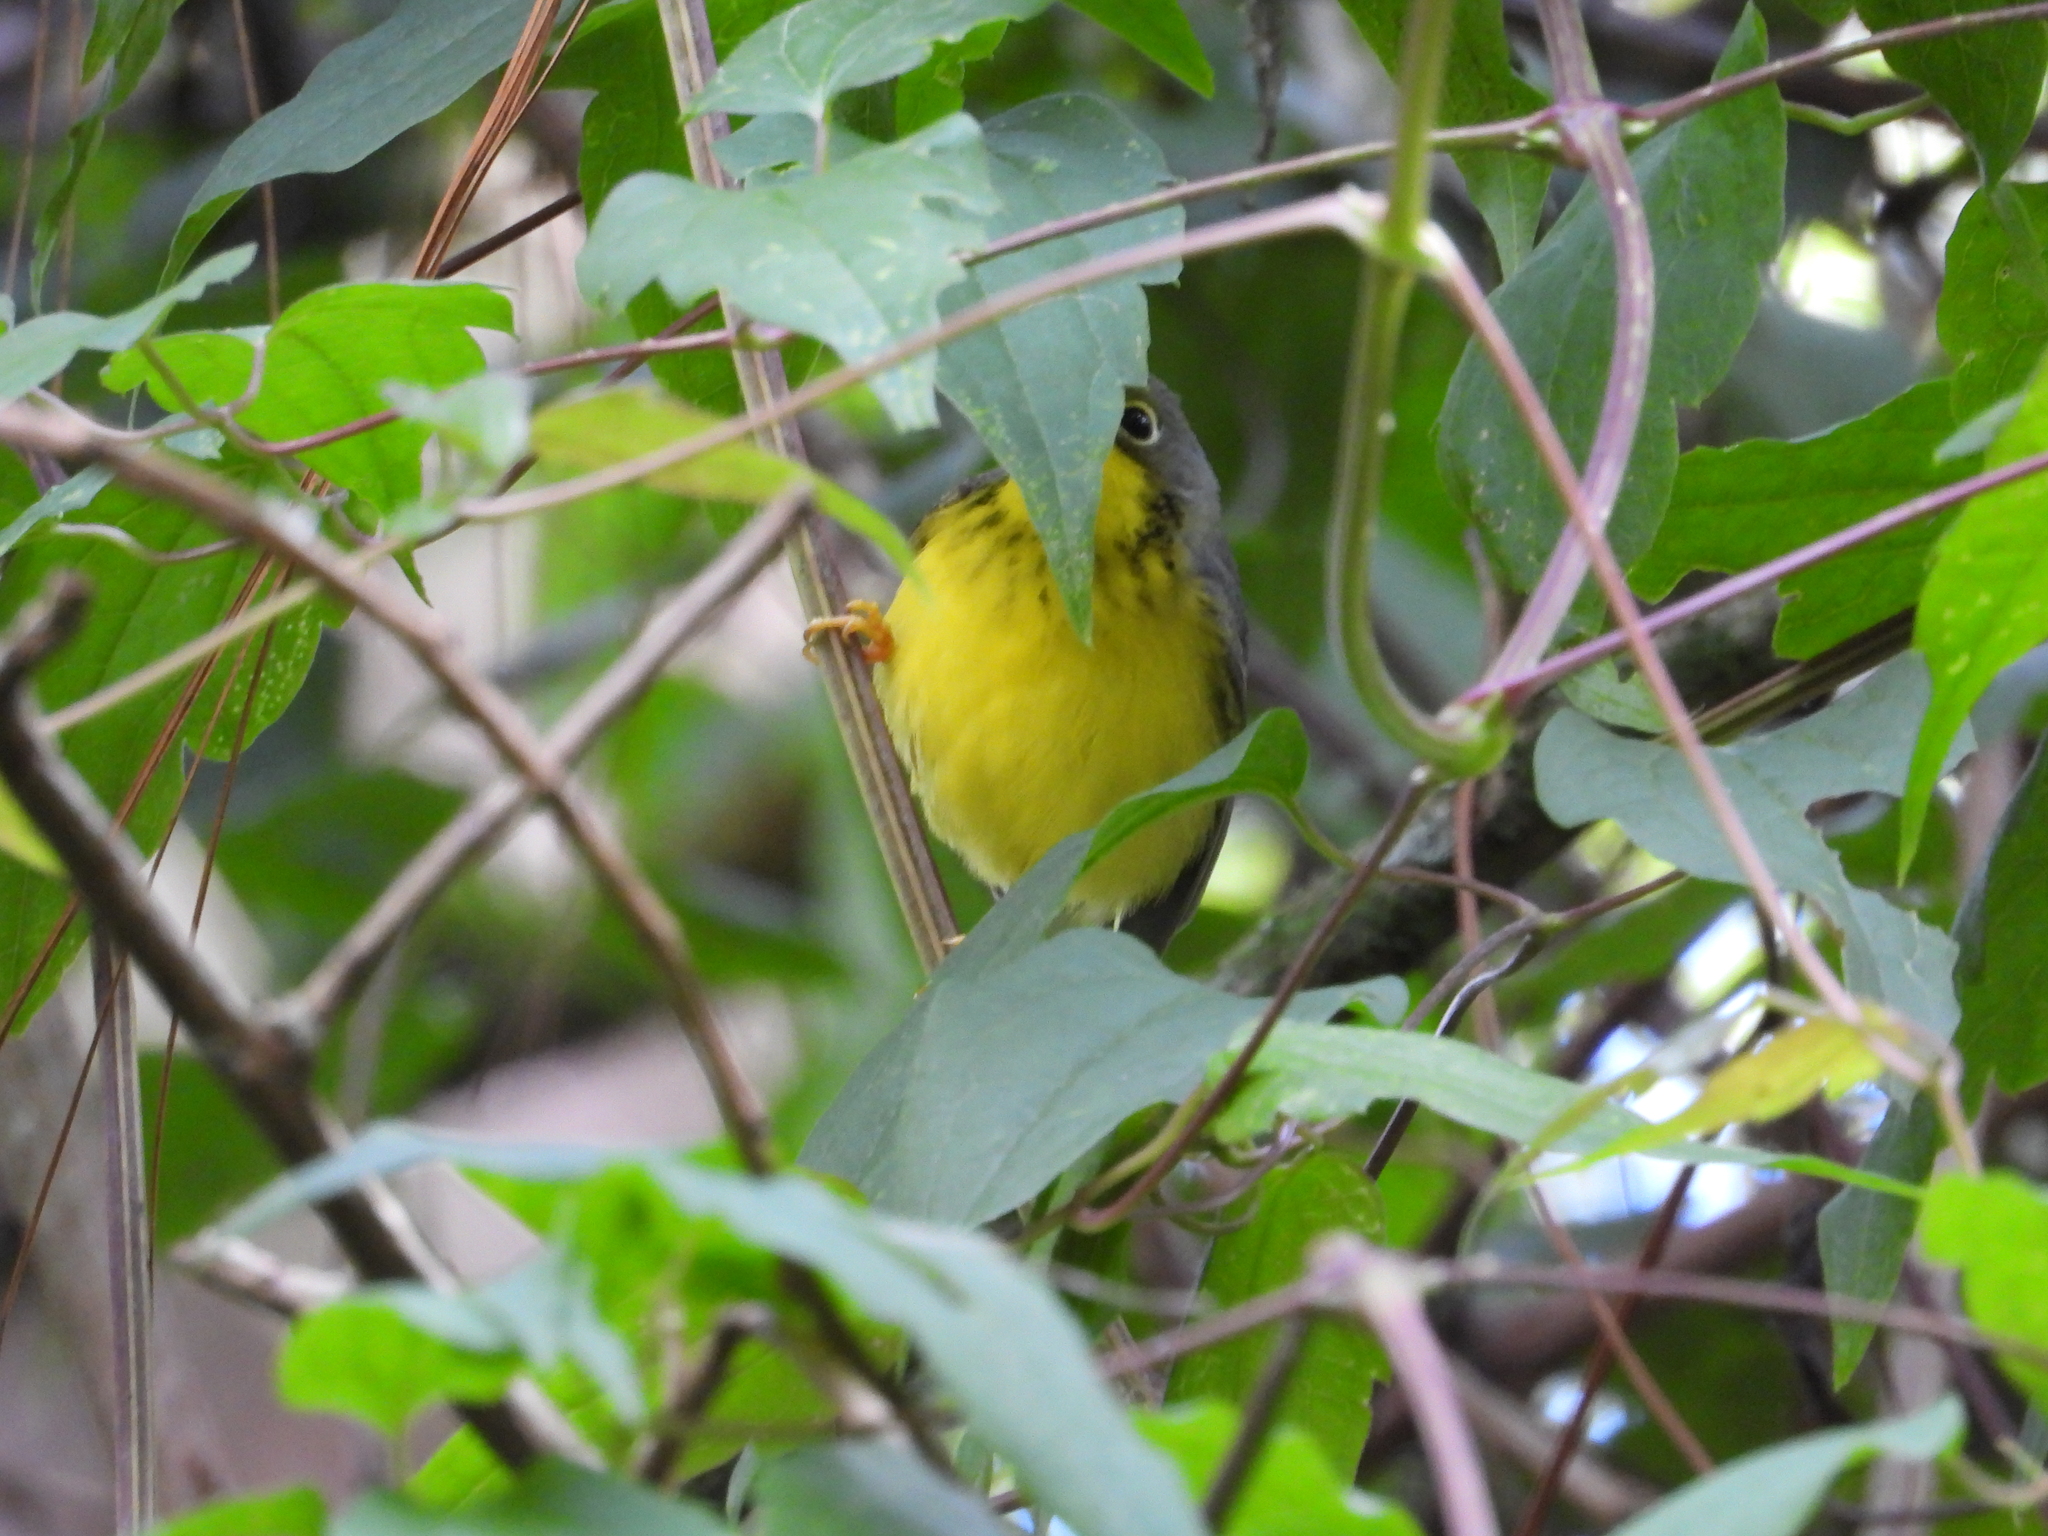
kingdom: Animalia
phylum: Chordata
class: Aves
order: Passeriformes
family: Parulidae
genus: Cardellina
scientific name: Cardellina canadensis
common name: Canada warbler
